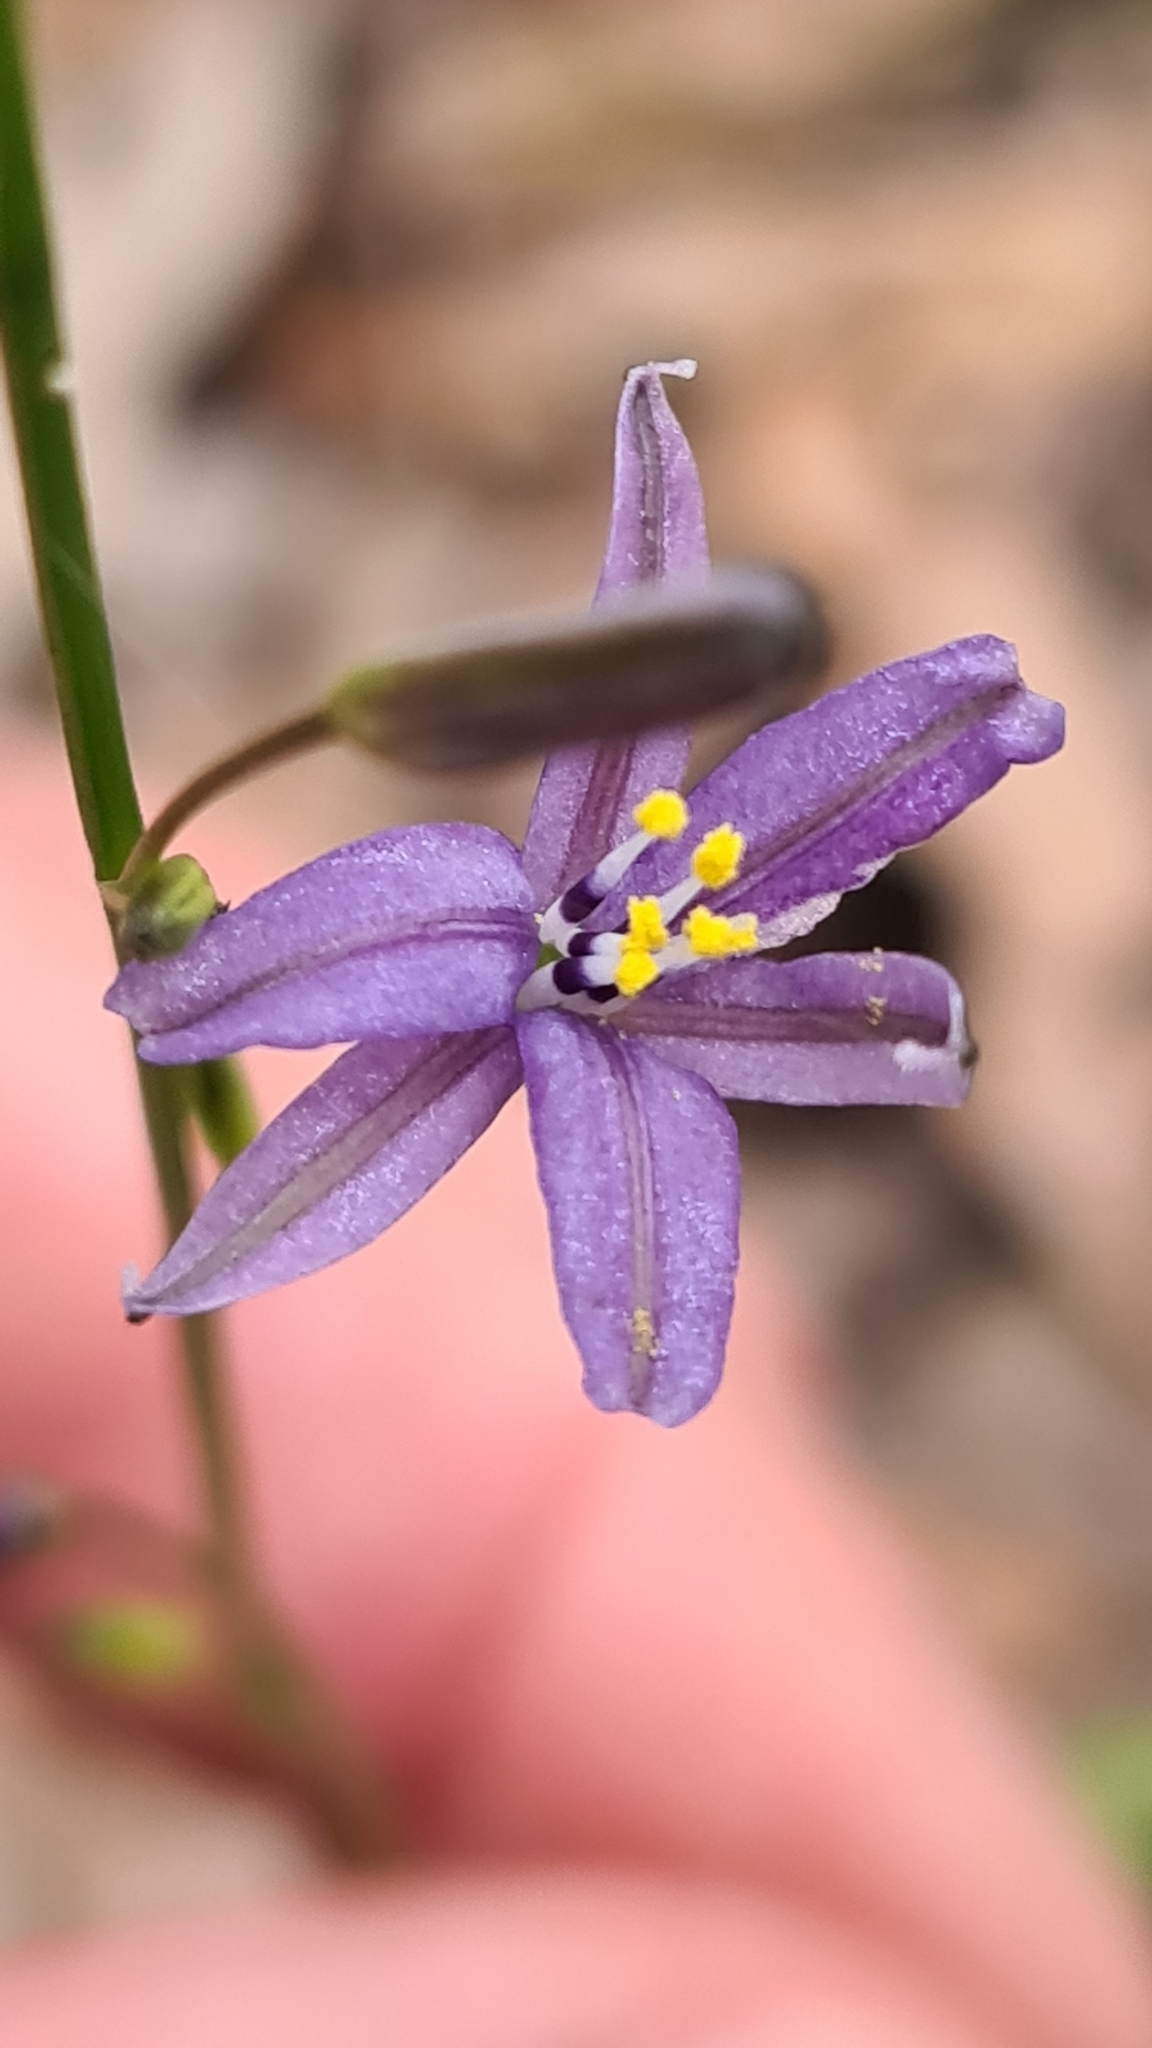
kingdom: Plantae
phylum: Tracheophyta
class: Liliopsida
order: Asparagales
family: Asphodelaceae
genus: Caesia
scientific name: Caesia parviflora
